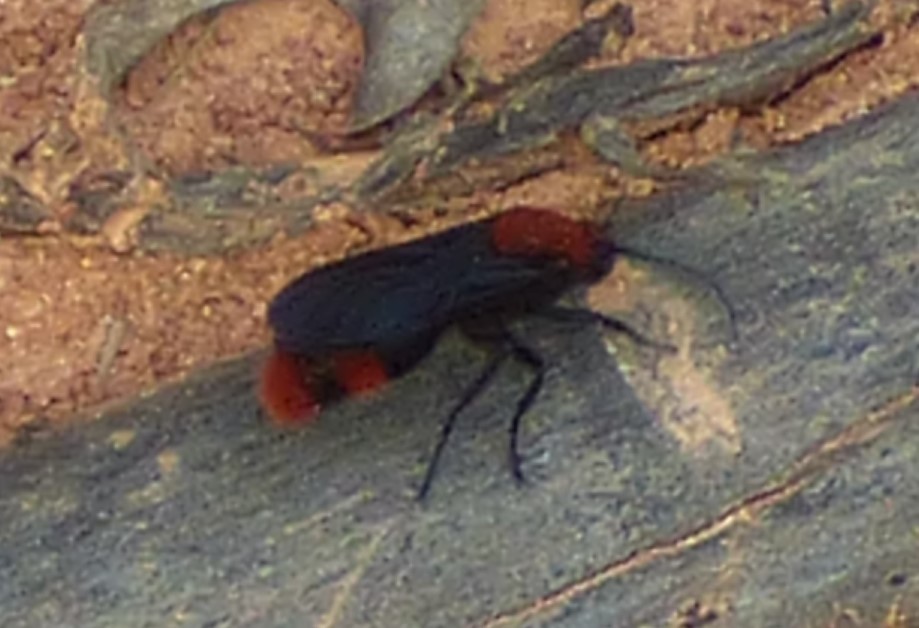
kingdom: Animalia
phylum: Arthropoda
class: Insecta
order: Hymenoptera
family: Mutillidae
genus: Dasymutilla
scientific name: Dasymutilla occidentalis
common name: Common eastern velvet ant
